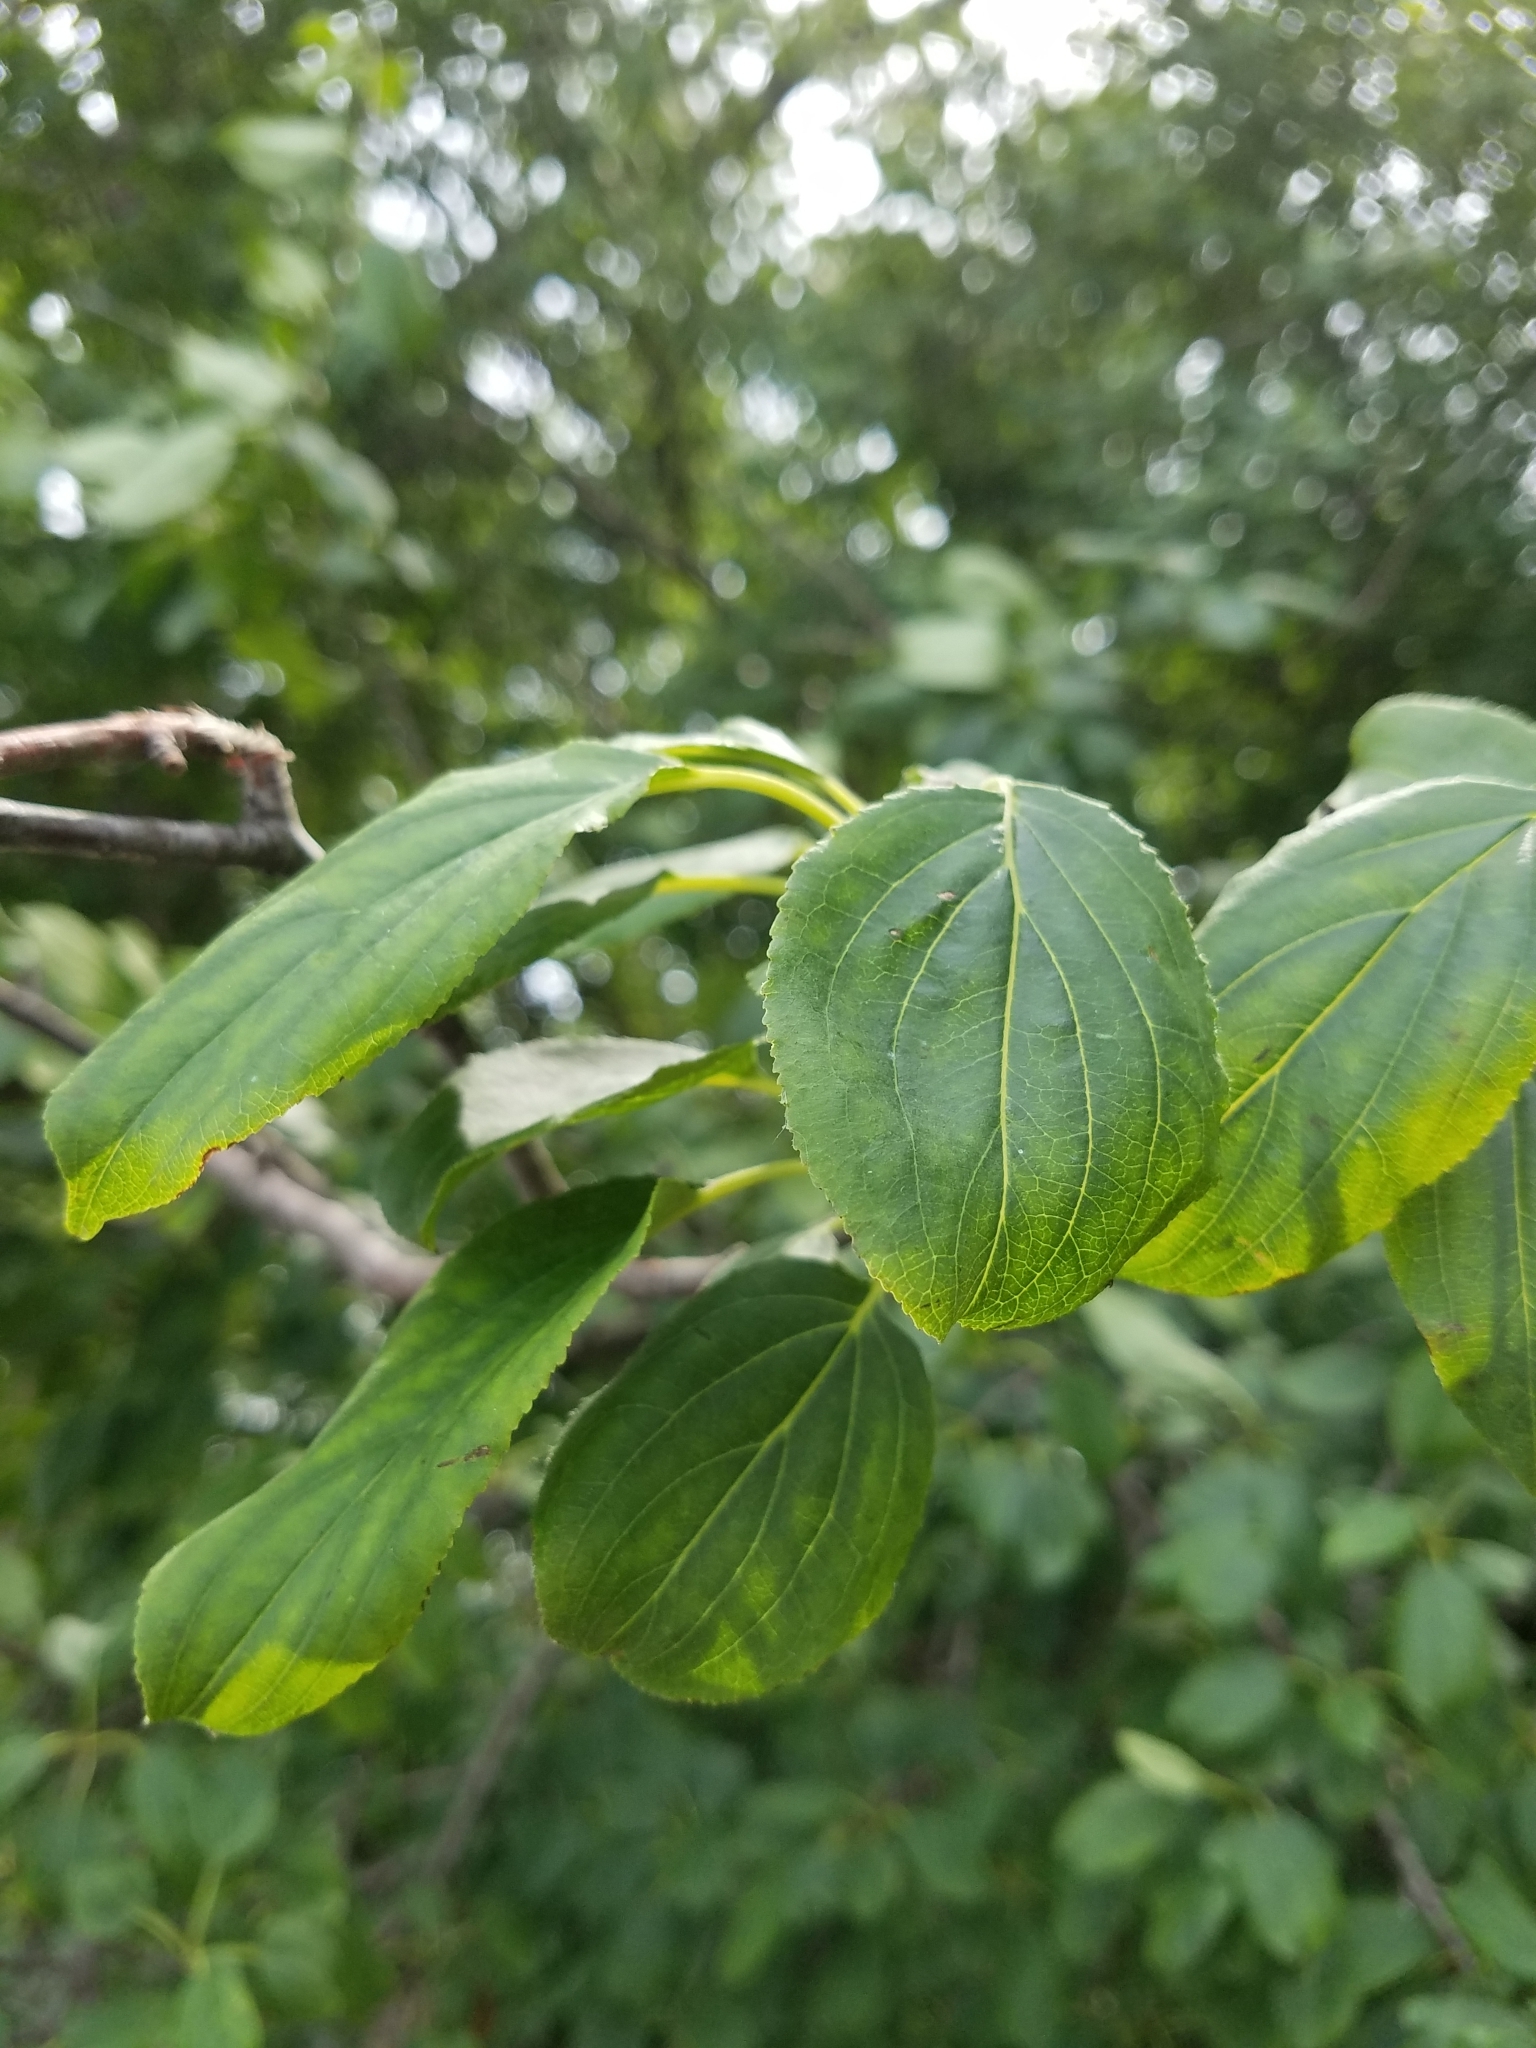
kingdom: Plantae
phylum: Tracheophyta
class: Magnoliopsida
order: Rosales
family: Rhamnaceae
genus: Rhamnus
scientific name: Rhamnus cathartica
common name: Common buckthorn
